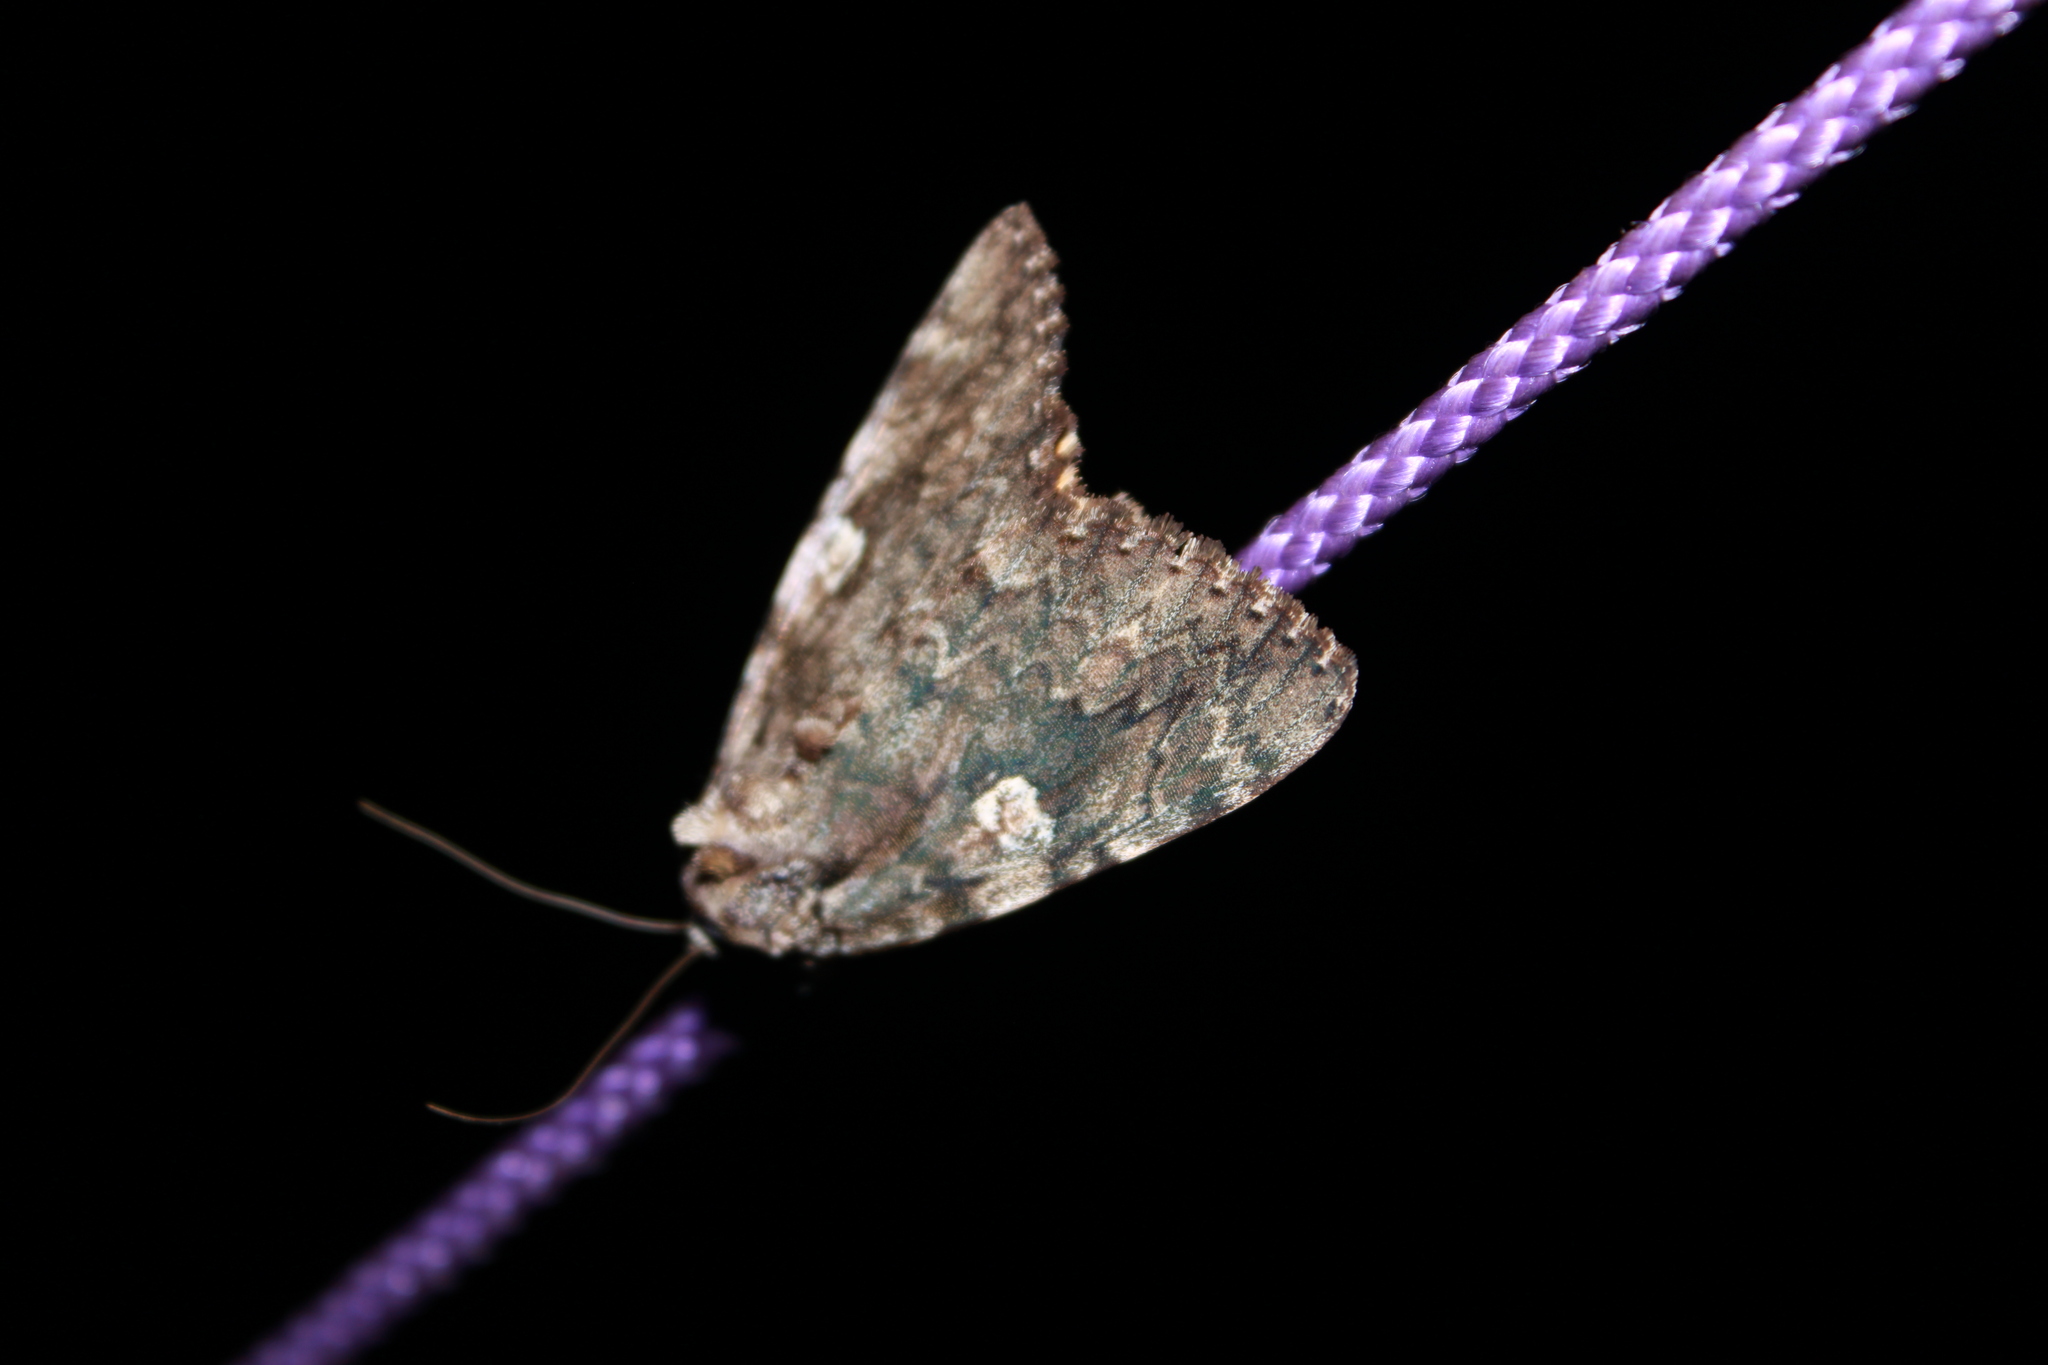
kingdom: Animalia
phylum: Arthropoda
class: Insecta
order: Lepidoptera
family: Erebidae
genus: Catocala
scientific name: Catocala ilia
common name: Ilia underwing
